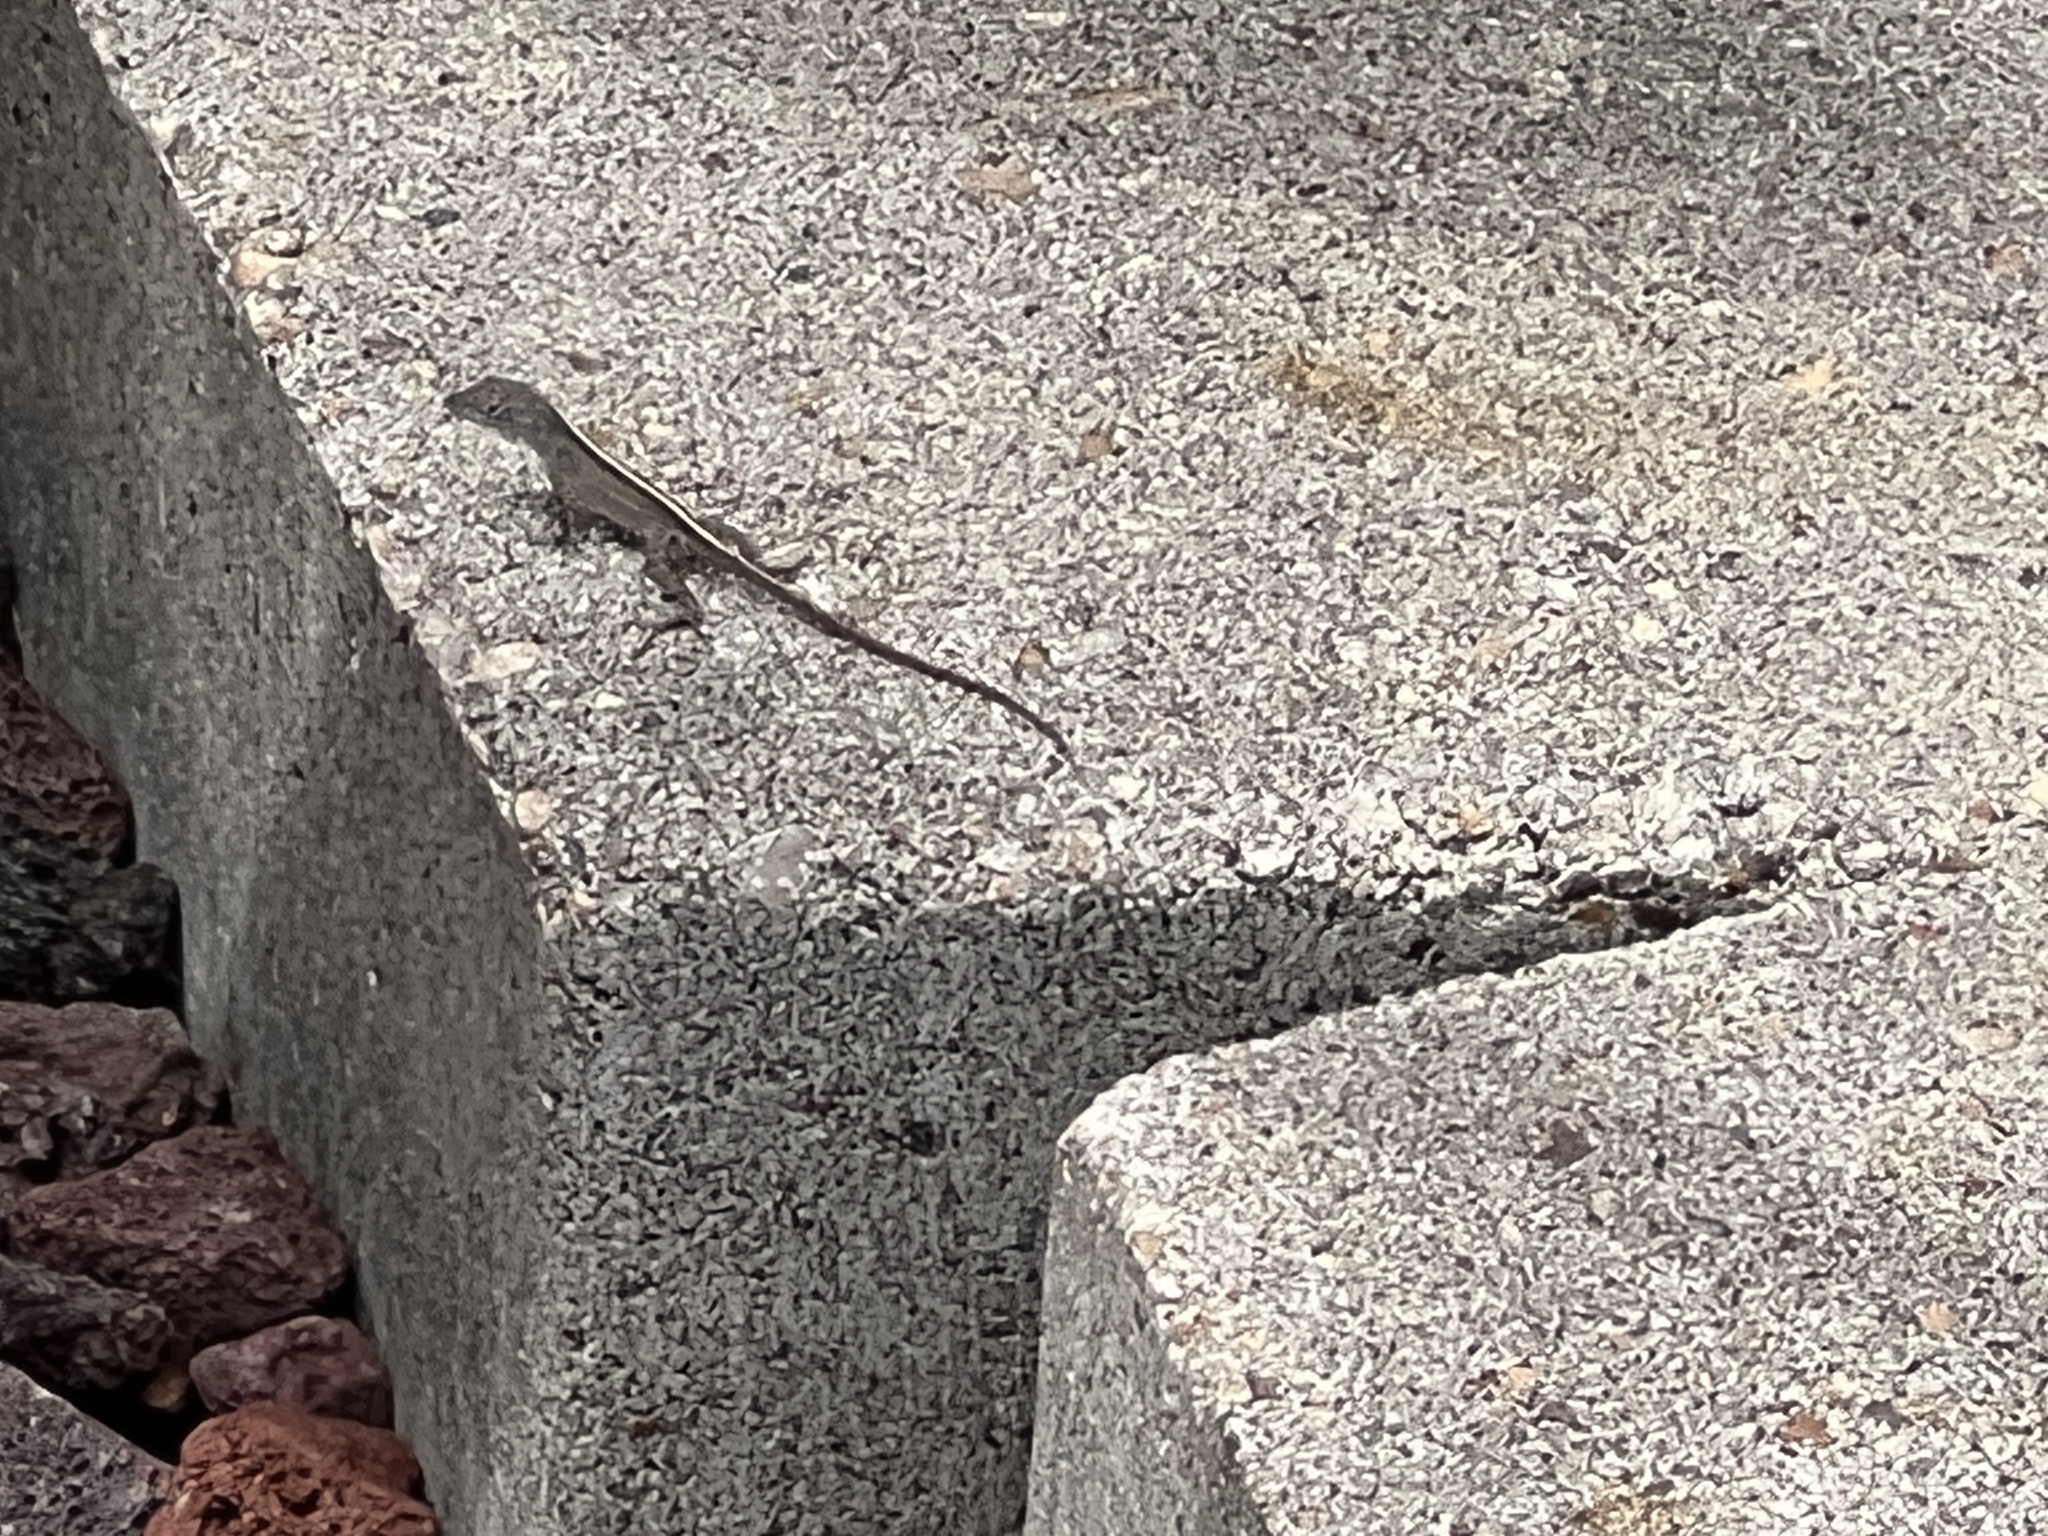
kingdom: Animalia
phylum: Chordata
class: Squamata
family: Dactyloidae
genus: Anolis
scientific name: Anolis sagrei
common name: Brown anole
